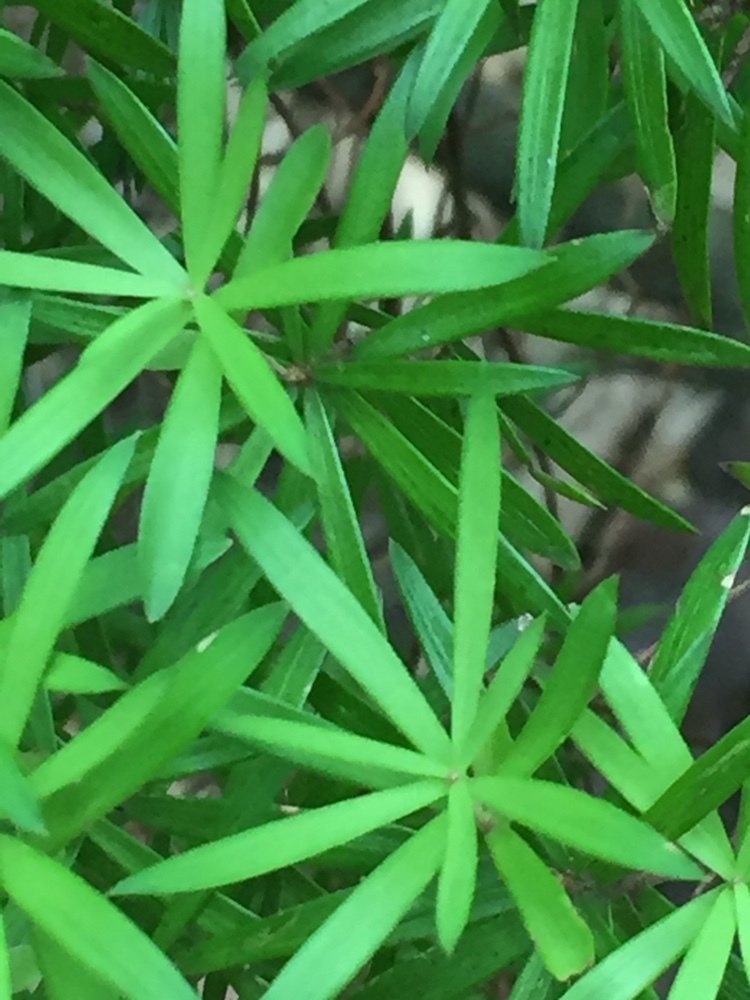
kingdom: Plantae
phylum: Tracheophyta
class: Magnoliopsida
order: Ericales
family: Ericaceae
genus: Leucopogon
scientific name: Leucopogon fasciculatus
